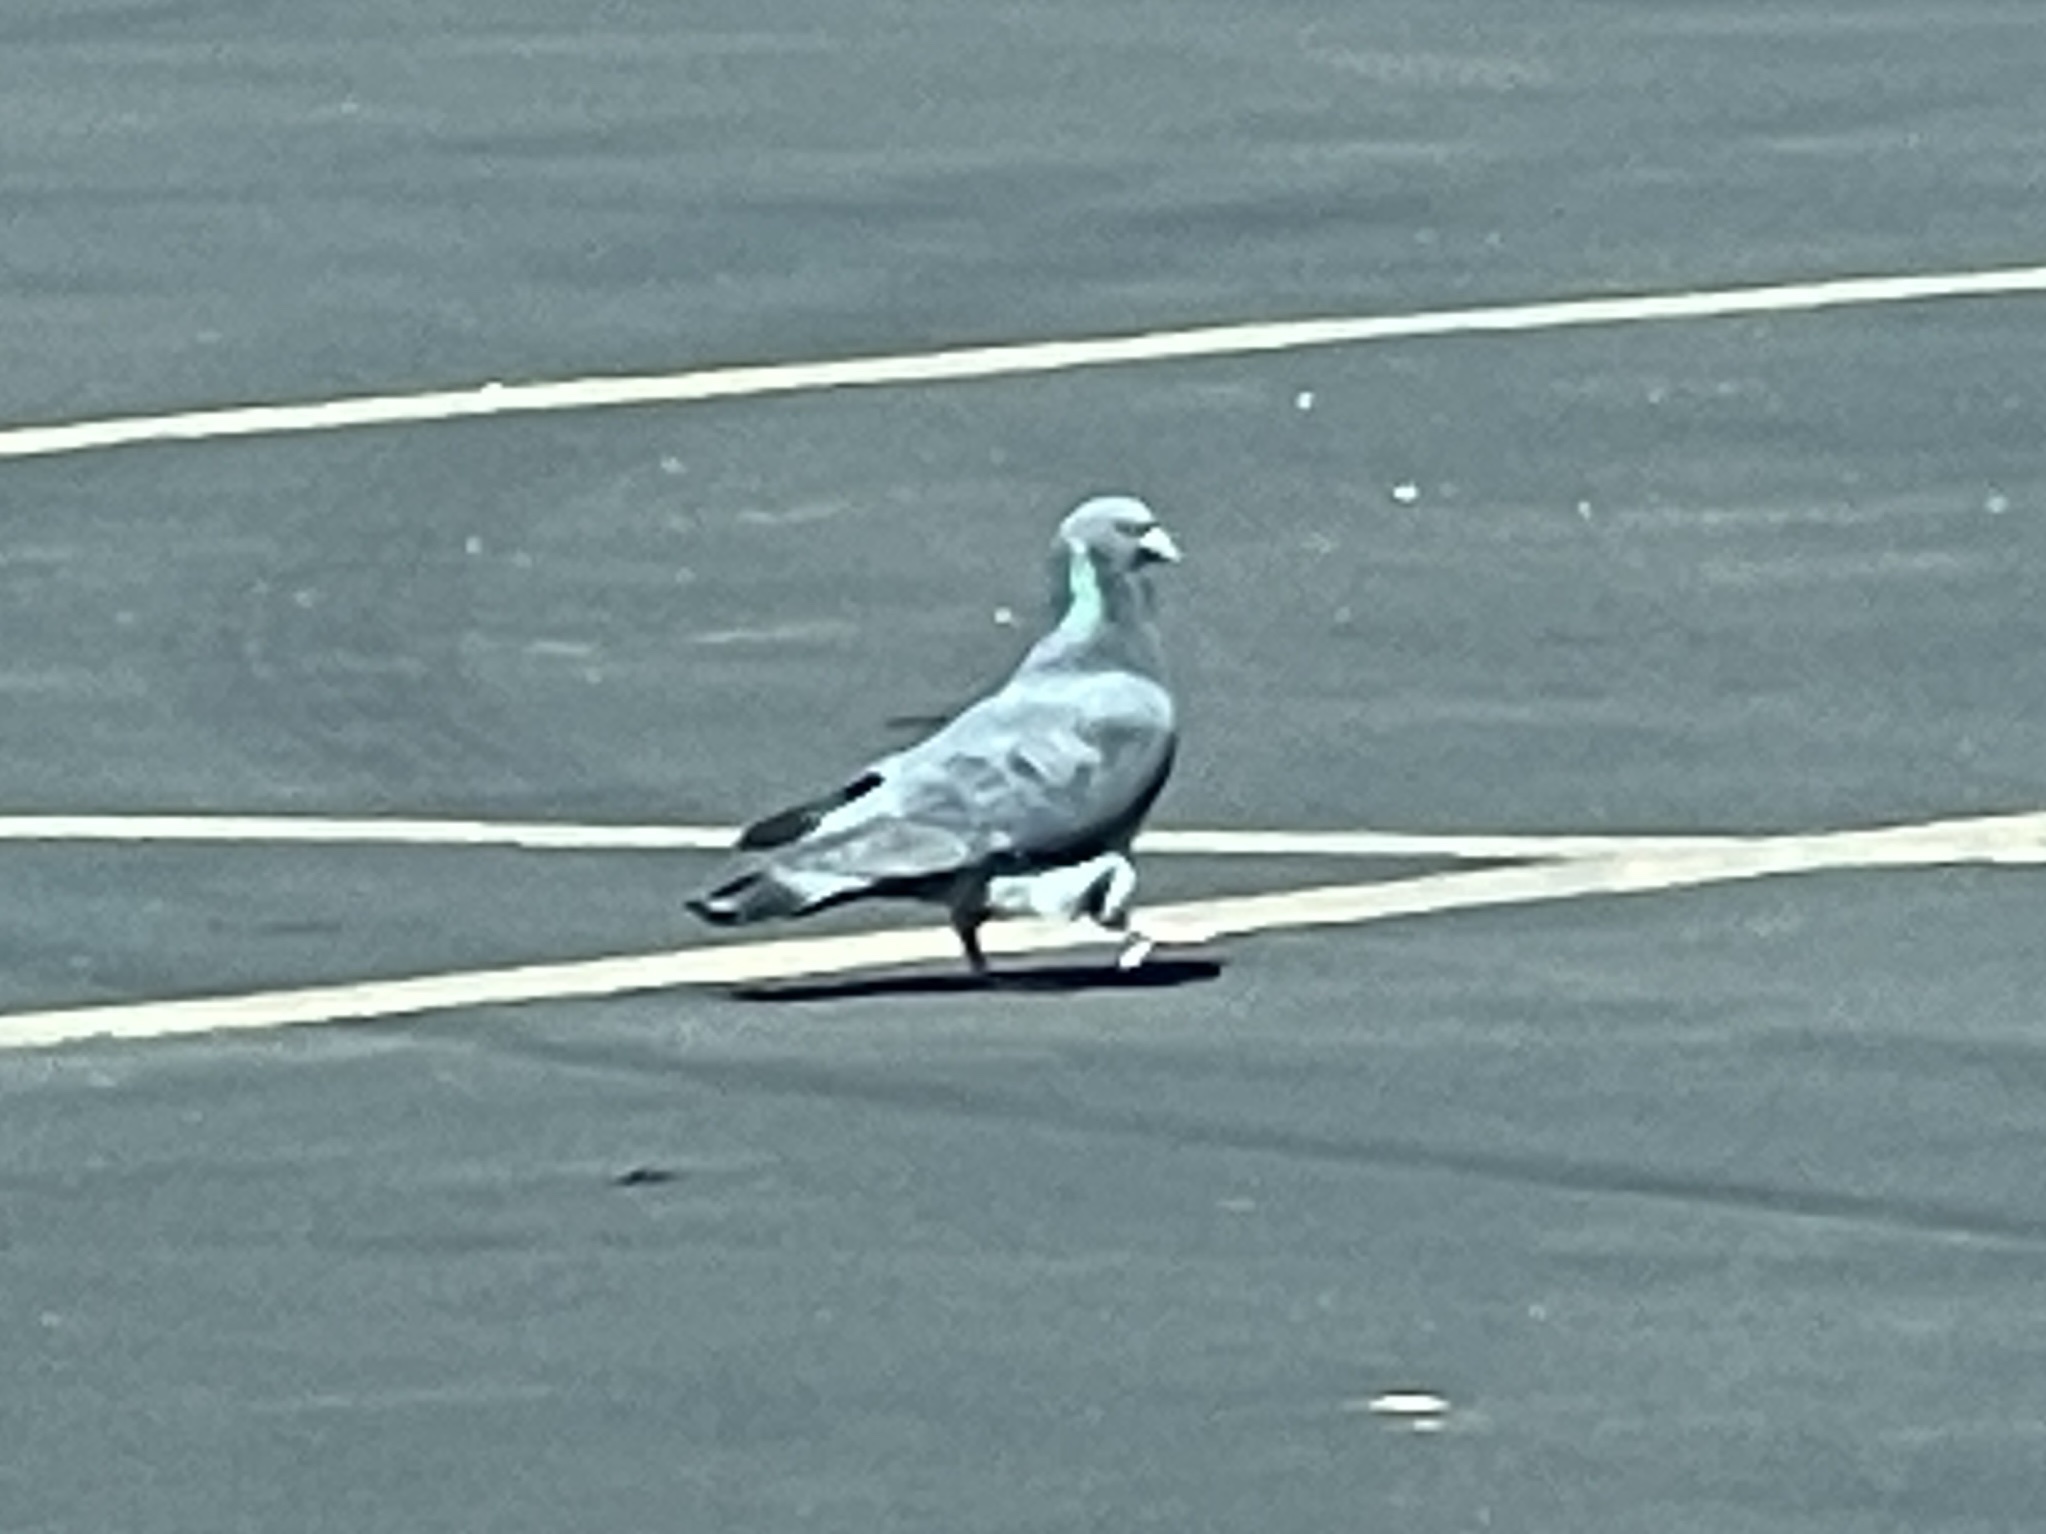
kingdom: Animalia
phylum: Chordata
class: Aves
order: Columbiformes
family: Columbidae
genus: Columba
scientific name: Columba livia
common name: Rock pigeon
